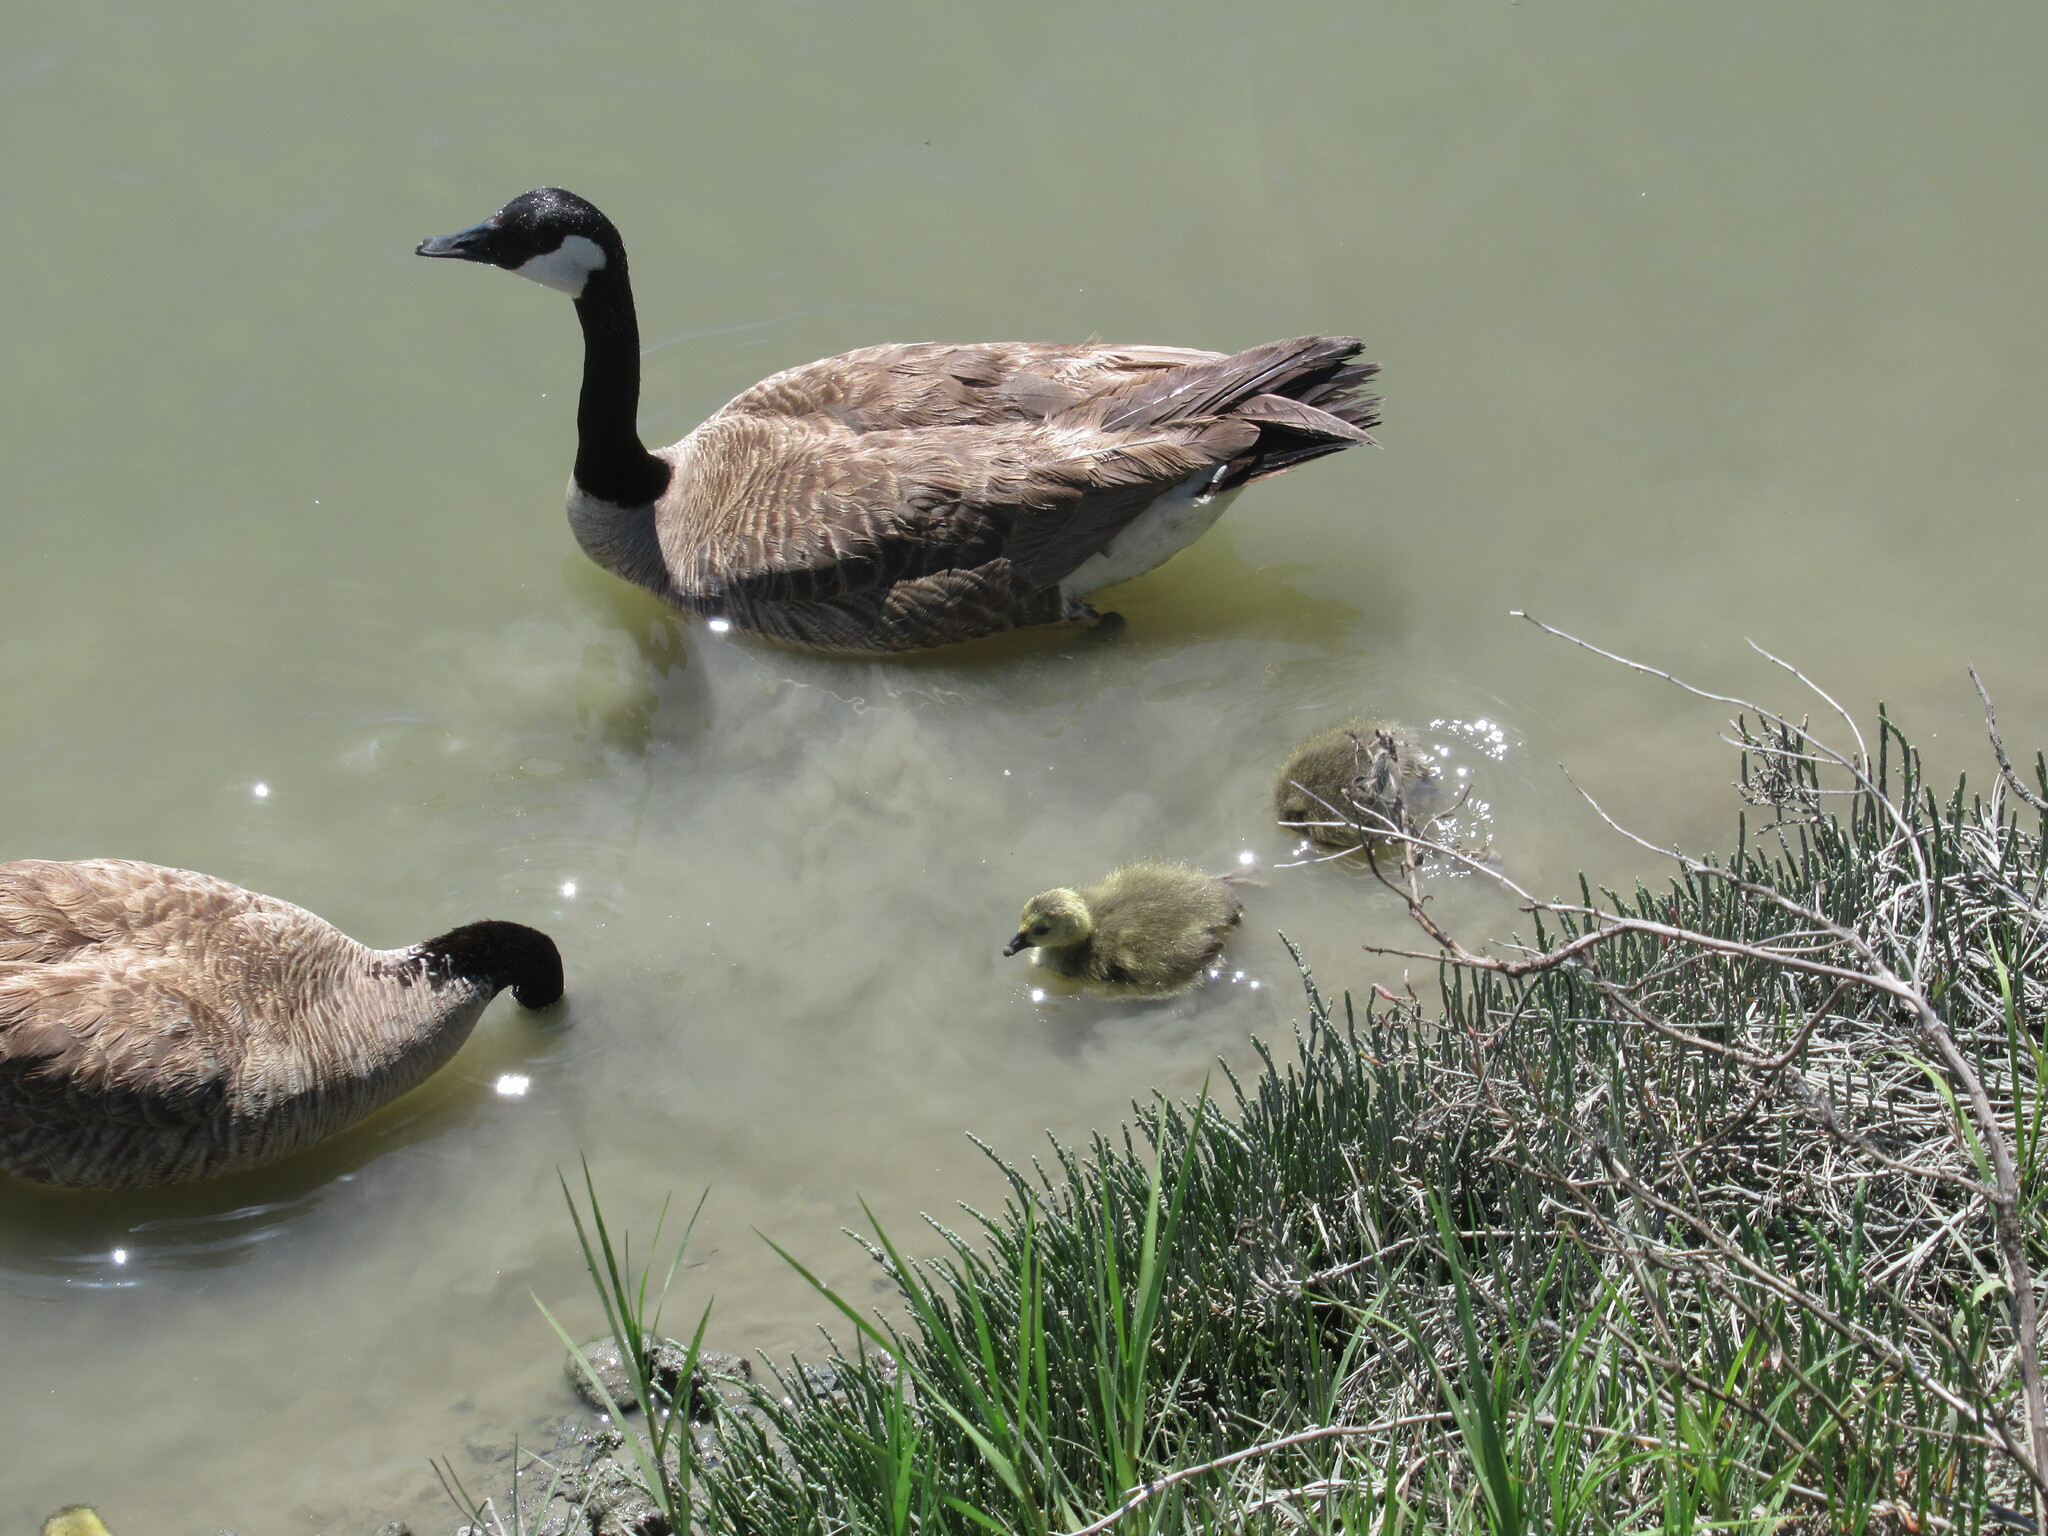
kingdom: Animalia
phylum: Chordata
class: Aves
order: Anseriformes
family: Anatidae
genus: Branta
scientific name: Branta canadensis
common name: Canada goose
